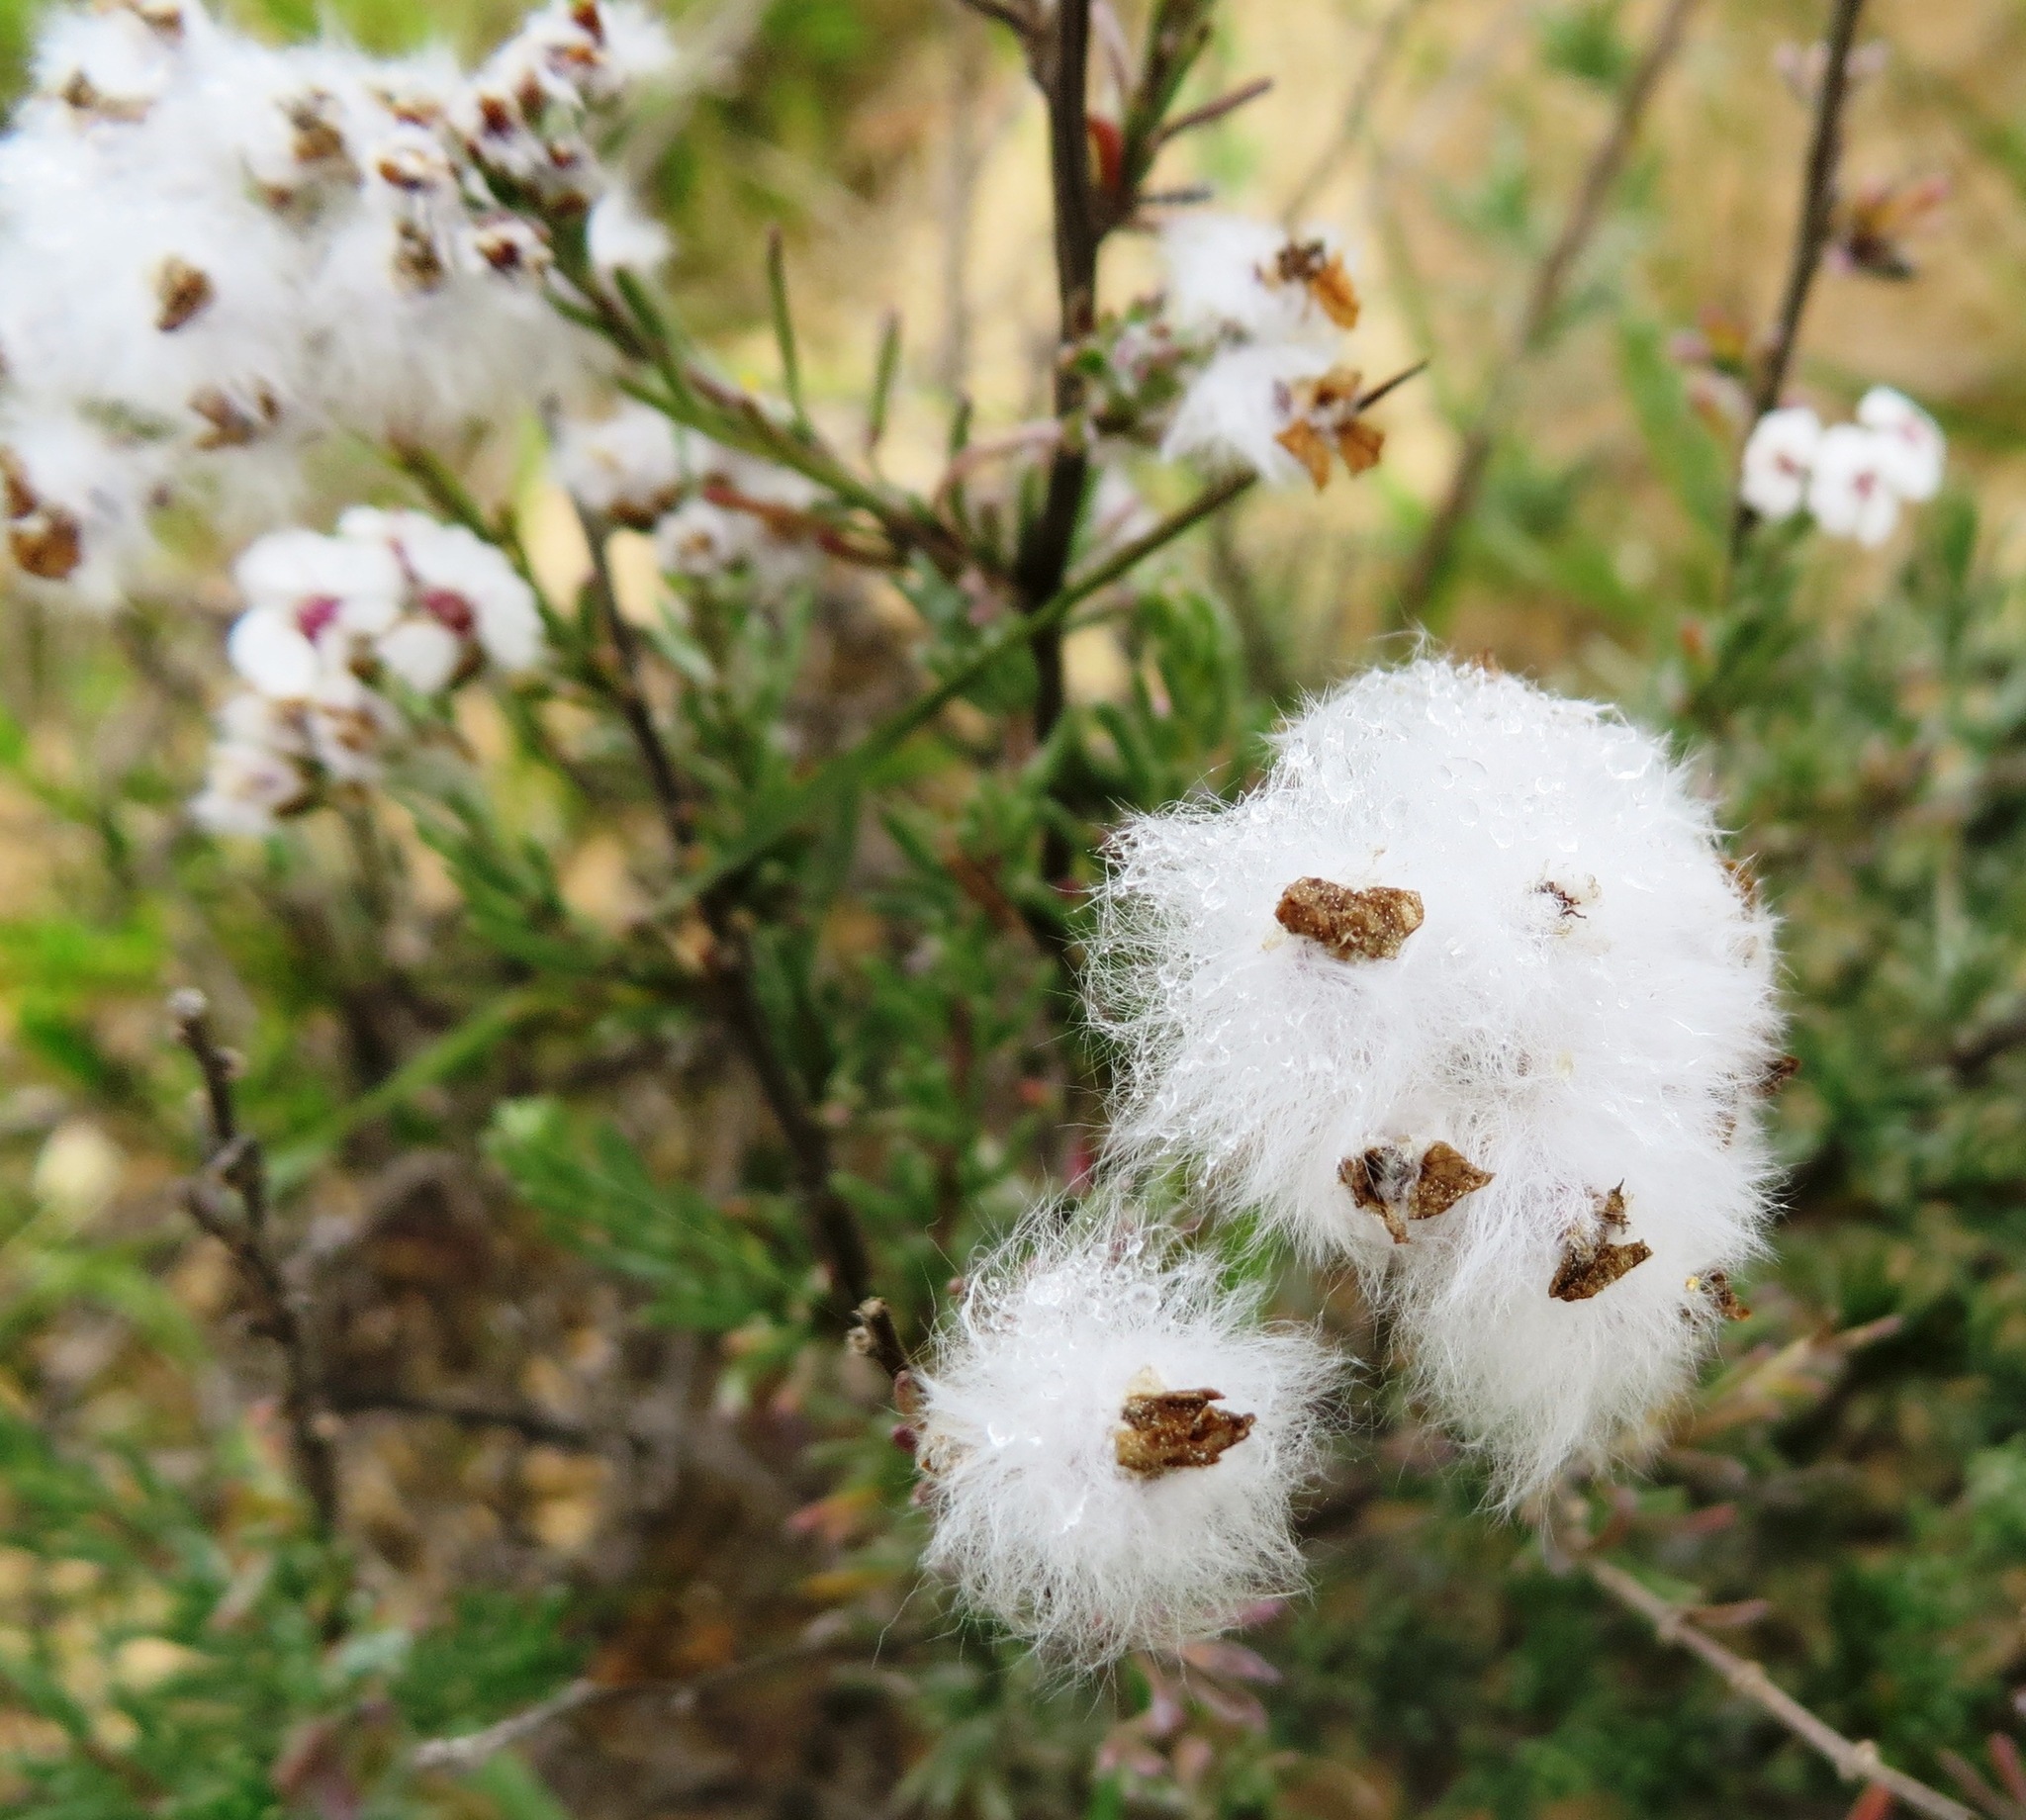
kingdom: Plantae
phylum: Tracheophyta
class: Magnoliopsida
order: Asterales
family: Asteraceae
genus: Eriocephalus
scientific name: Eriocephalus africanus
